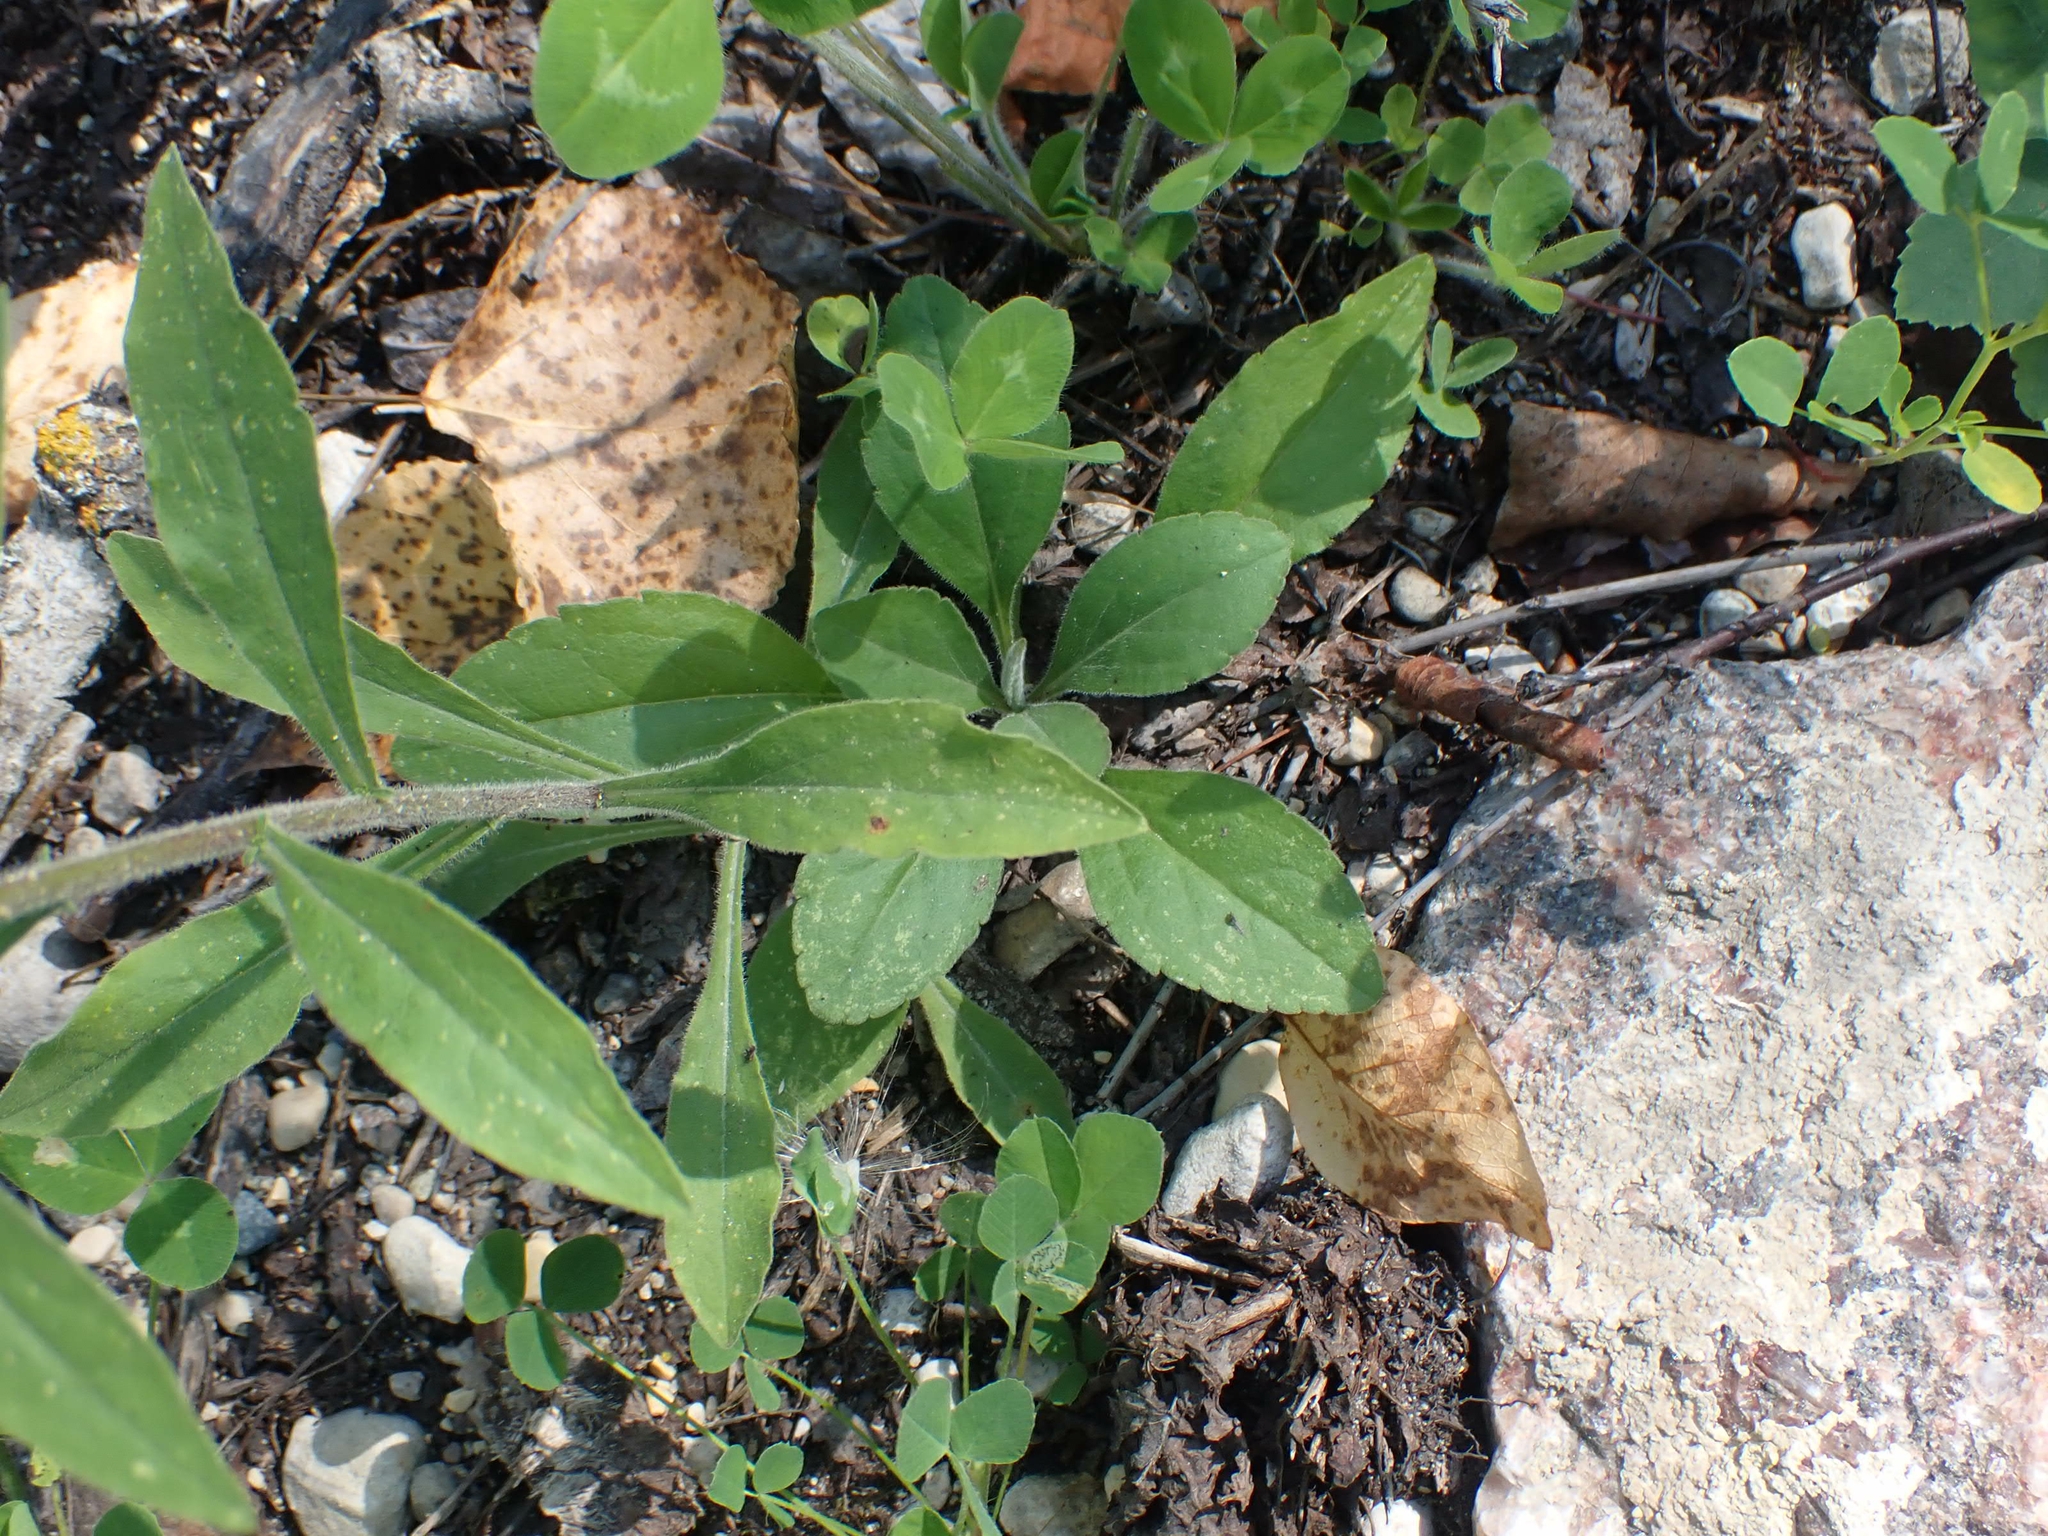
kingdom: Plantae
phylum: Tracheophyta
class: Magnoliopsida
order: Asterales
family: Asteraceae
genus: Solidago
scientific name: Solidago hispida
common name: Hairy goldenrod
